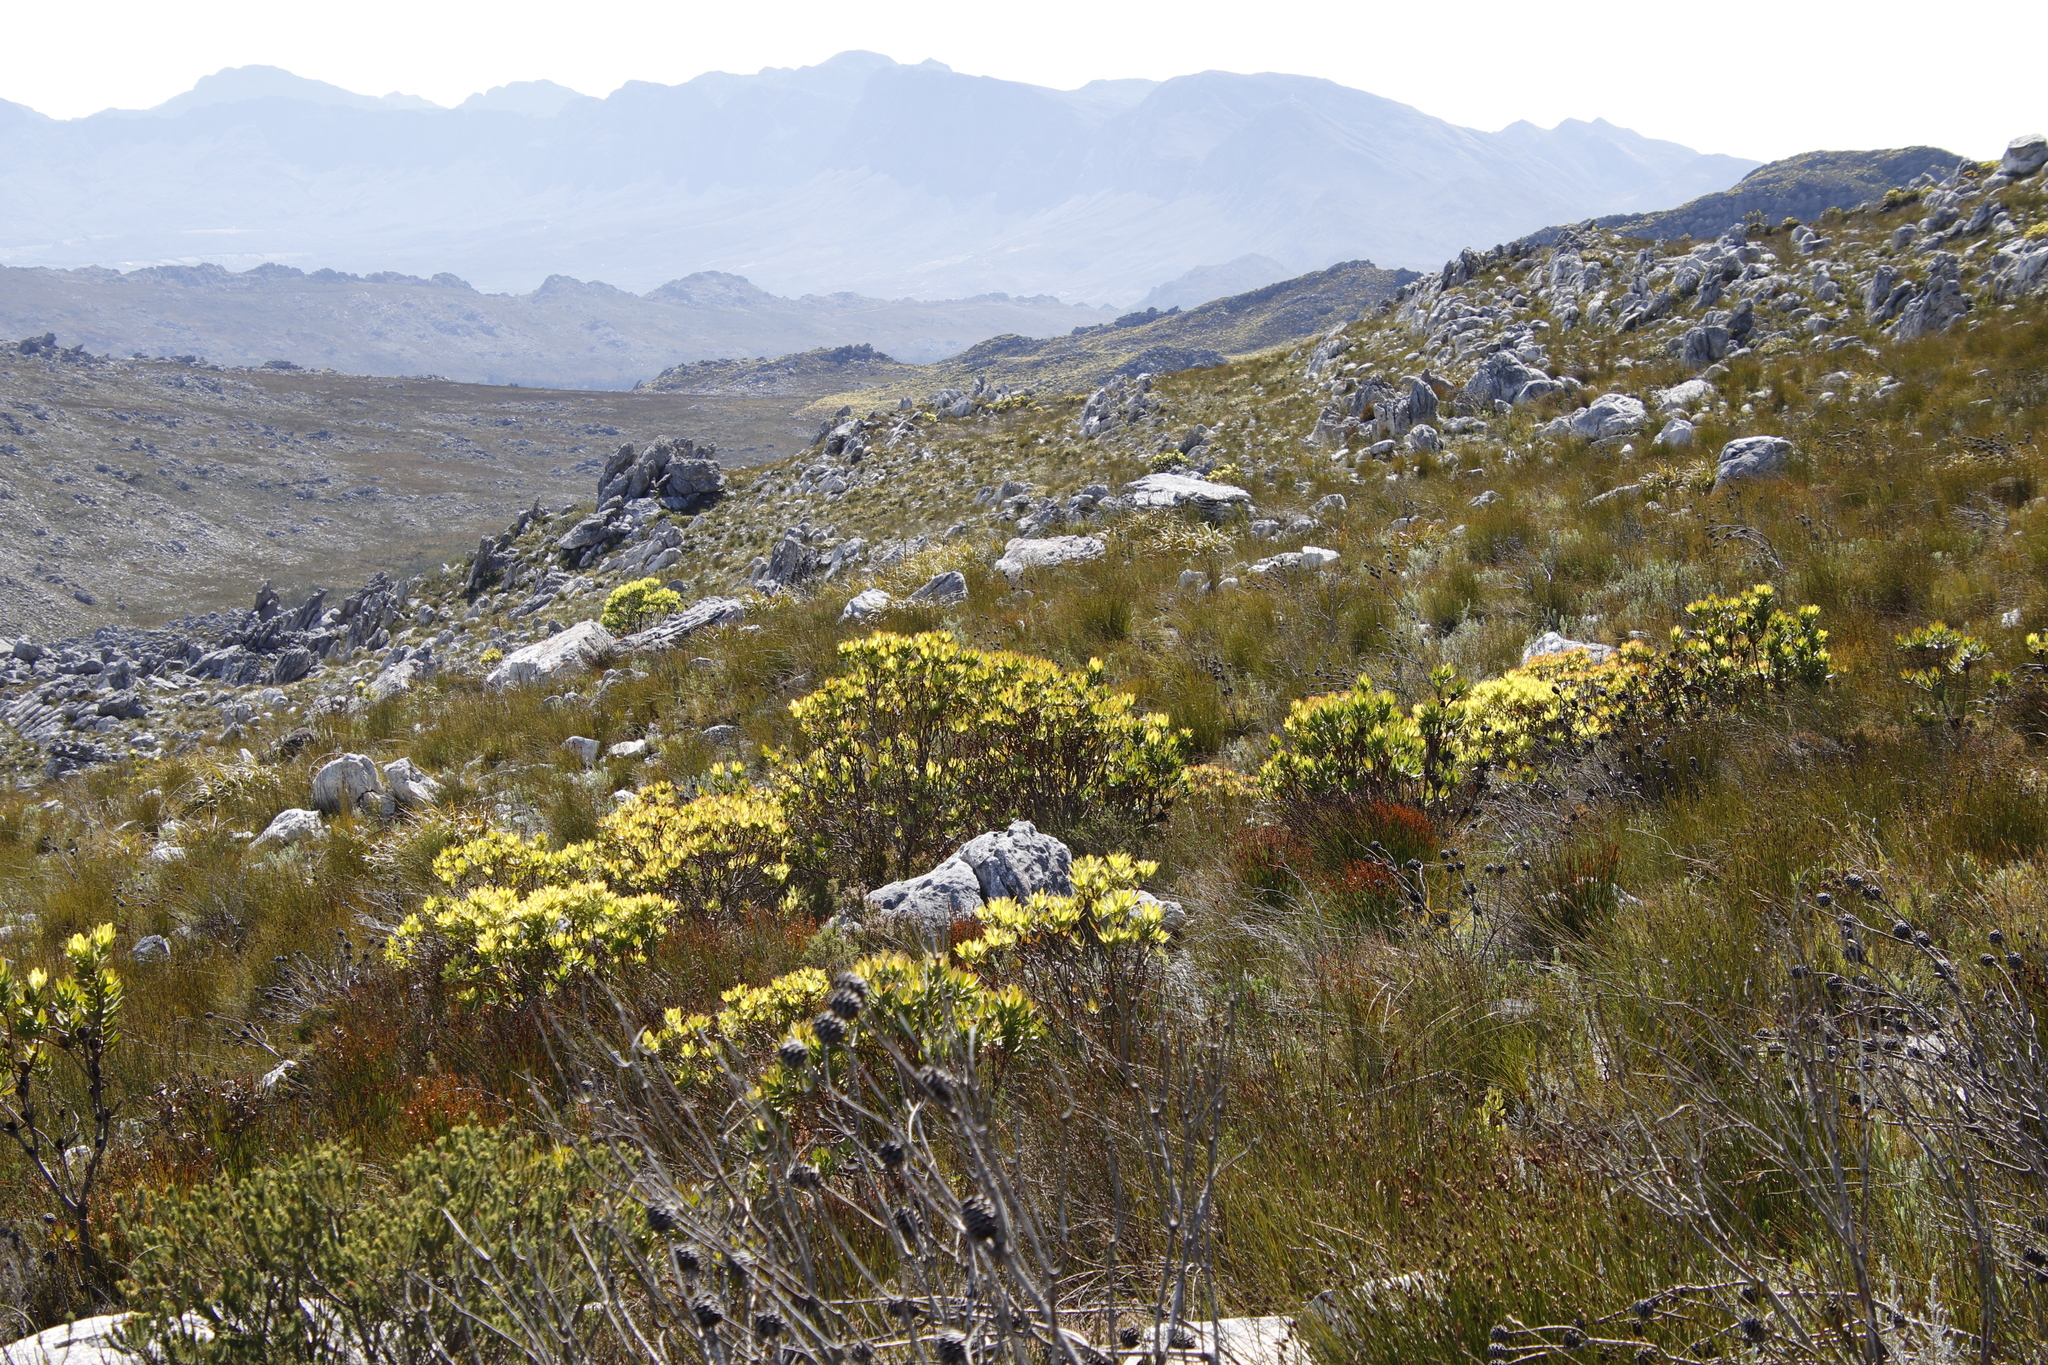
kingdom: Plantae
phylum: Tracheophyta
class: Magnoliopsida
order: Proteales
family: Proteaceae
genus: Leucadendron
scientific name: Leucadendron gandogeri
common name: Broad-leaf conebush
